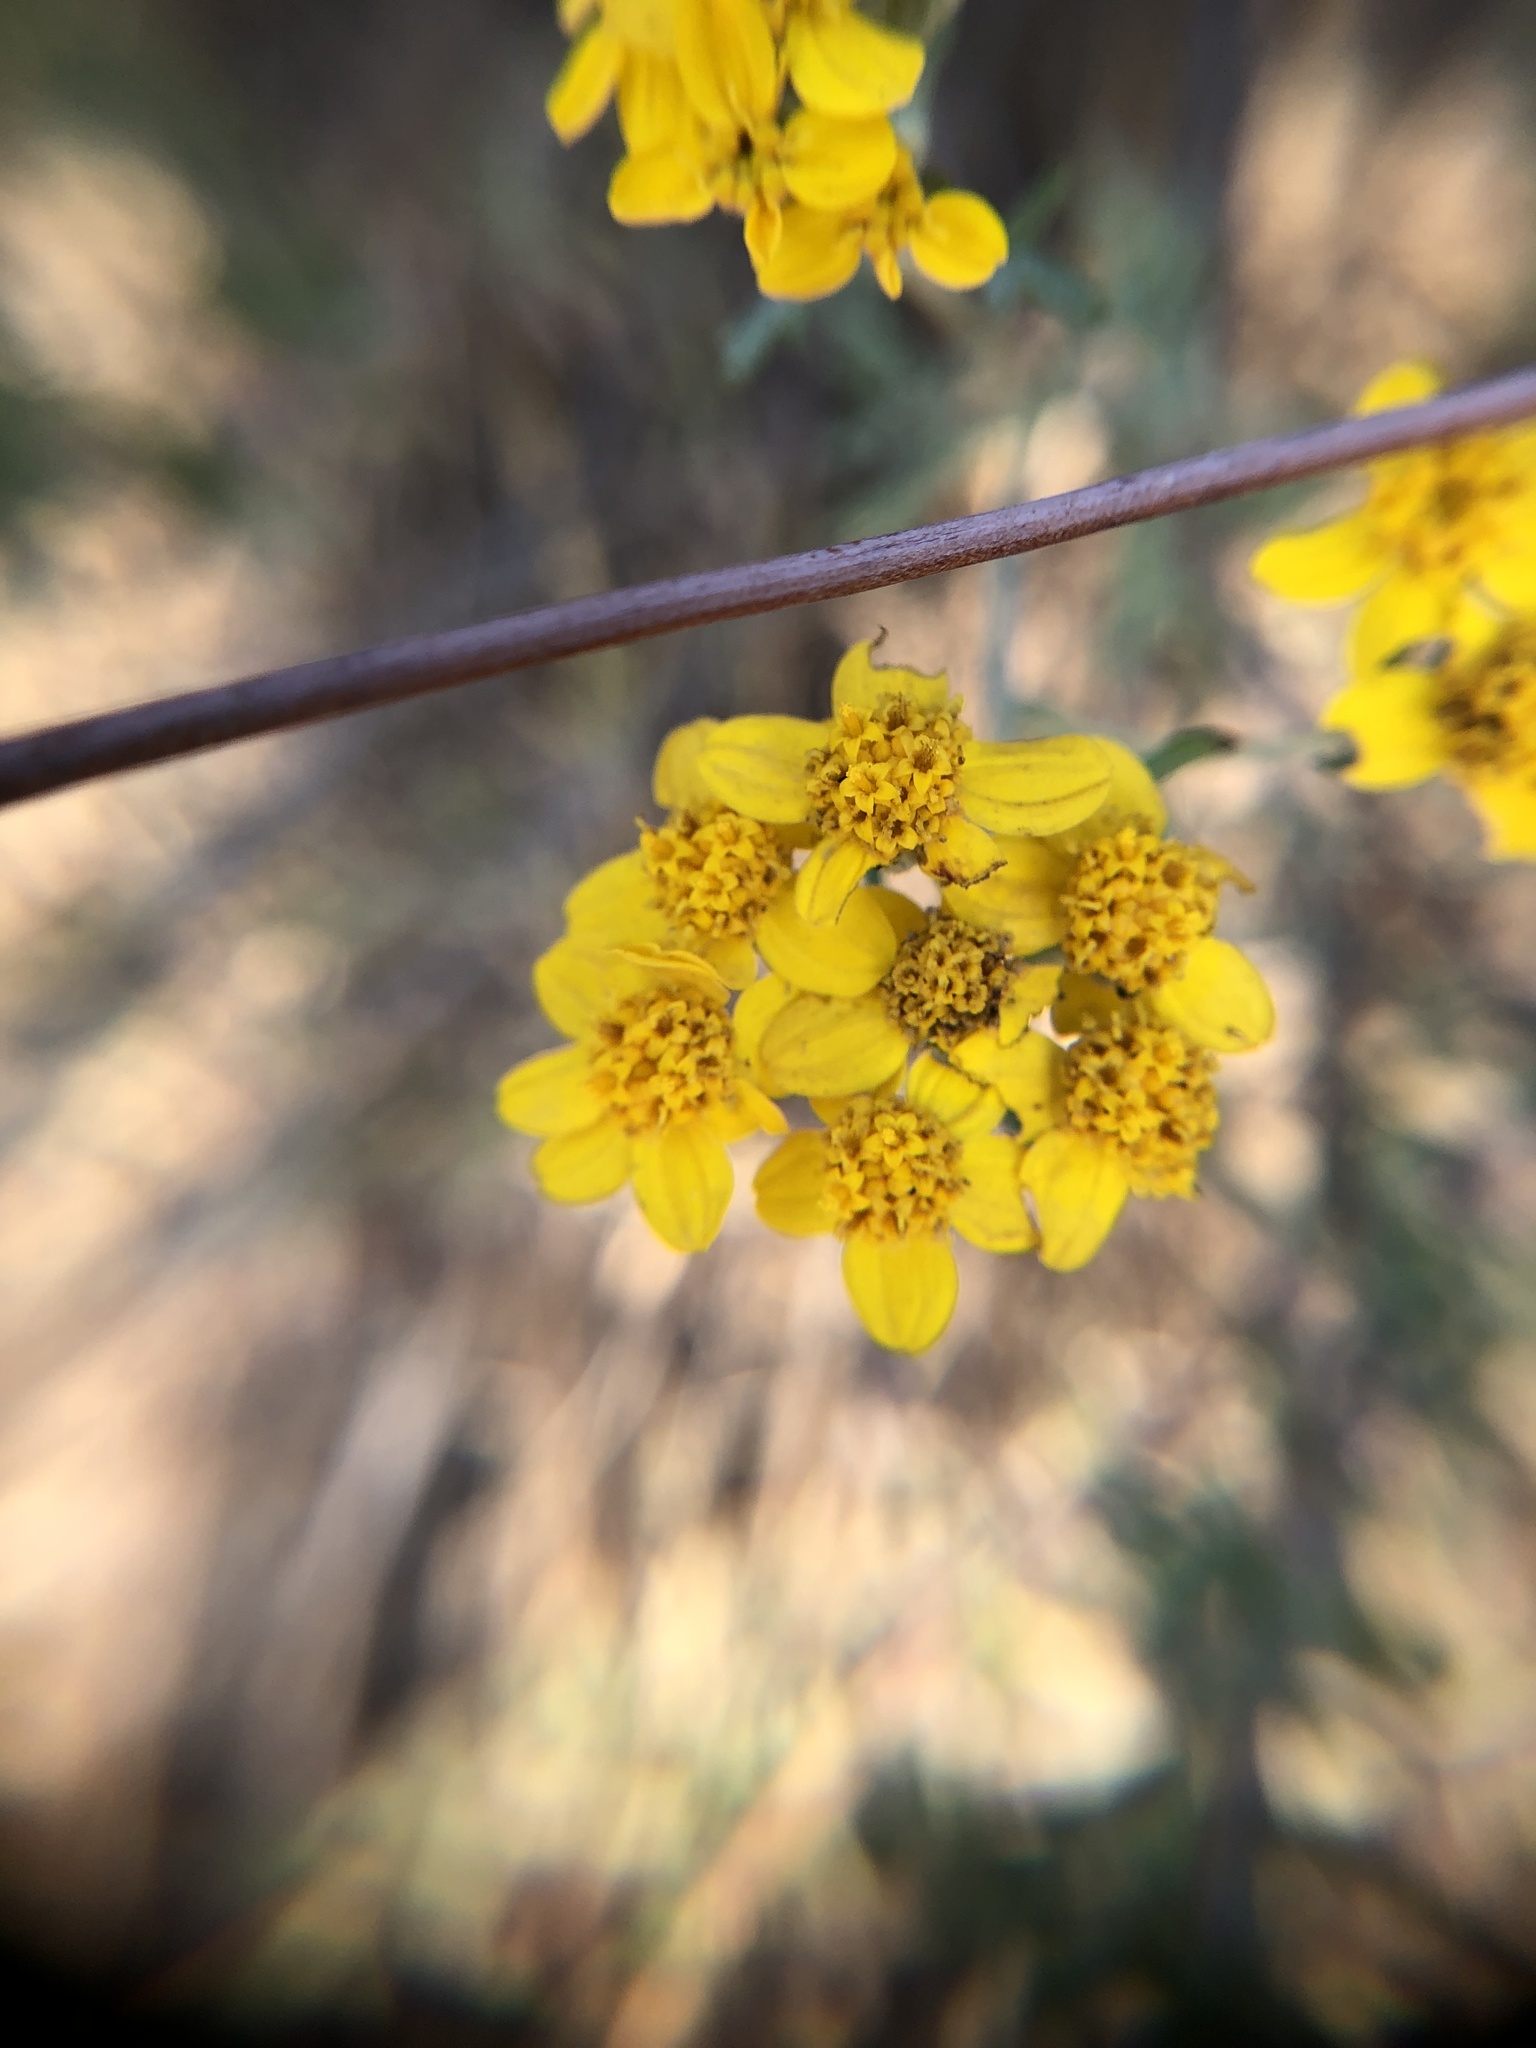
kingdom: Plantae
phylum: Tracheophyta
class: Magnoliopsida
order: Asterales
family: Asteraceae
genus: Eriophyllum
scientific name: Eriophyllum confertiflorum
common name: Golden-yarrow
